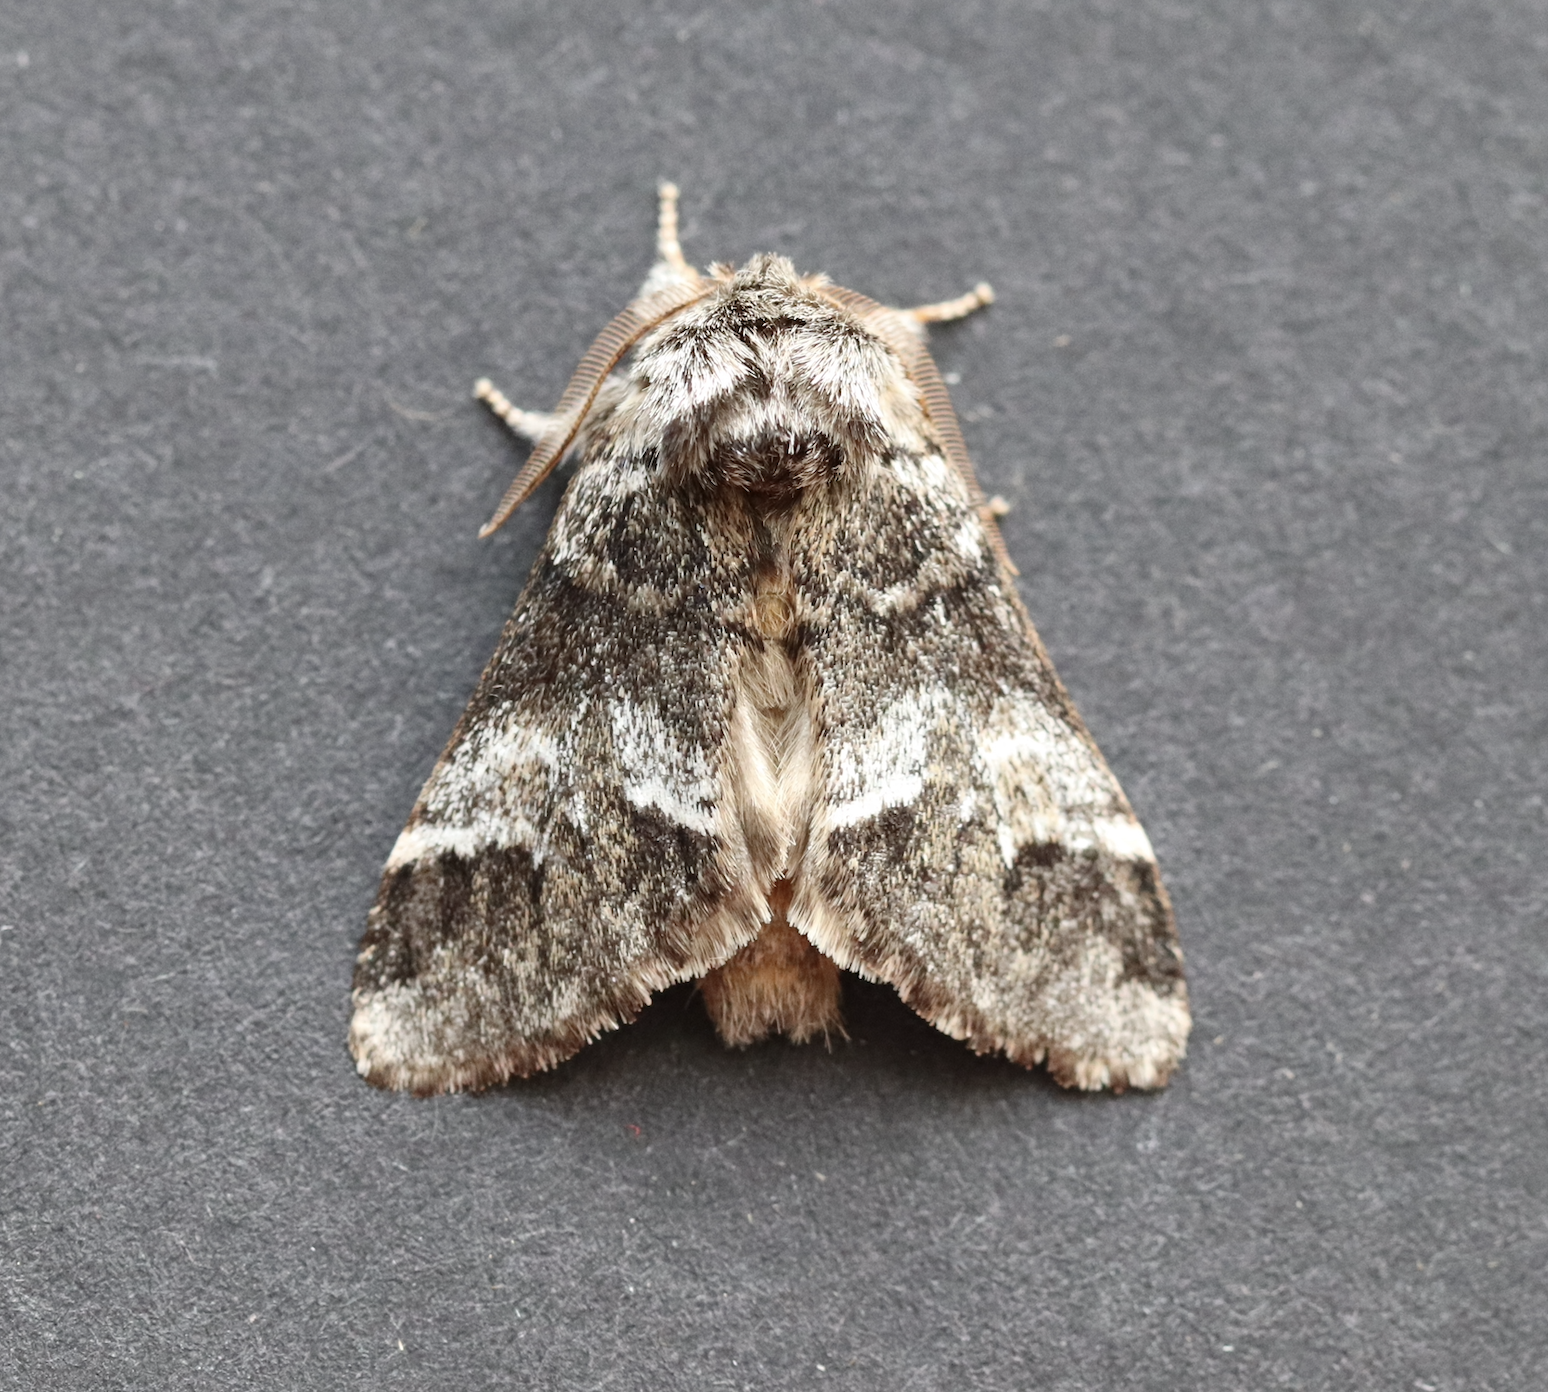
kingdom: Animalia
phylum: Arthropoda
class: Insecta
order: Lepidoptera
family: Notodontidae
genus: Drymonia
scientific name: Drymonia dodonaea
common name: Marbled brown
